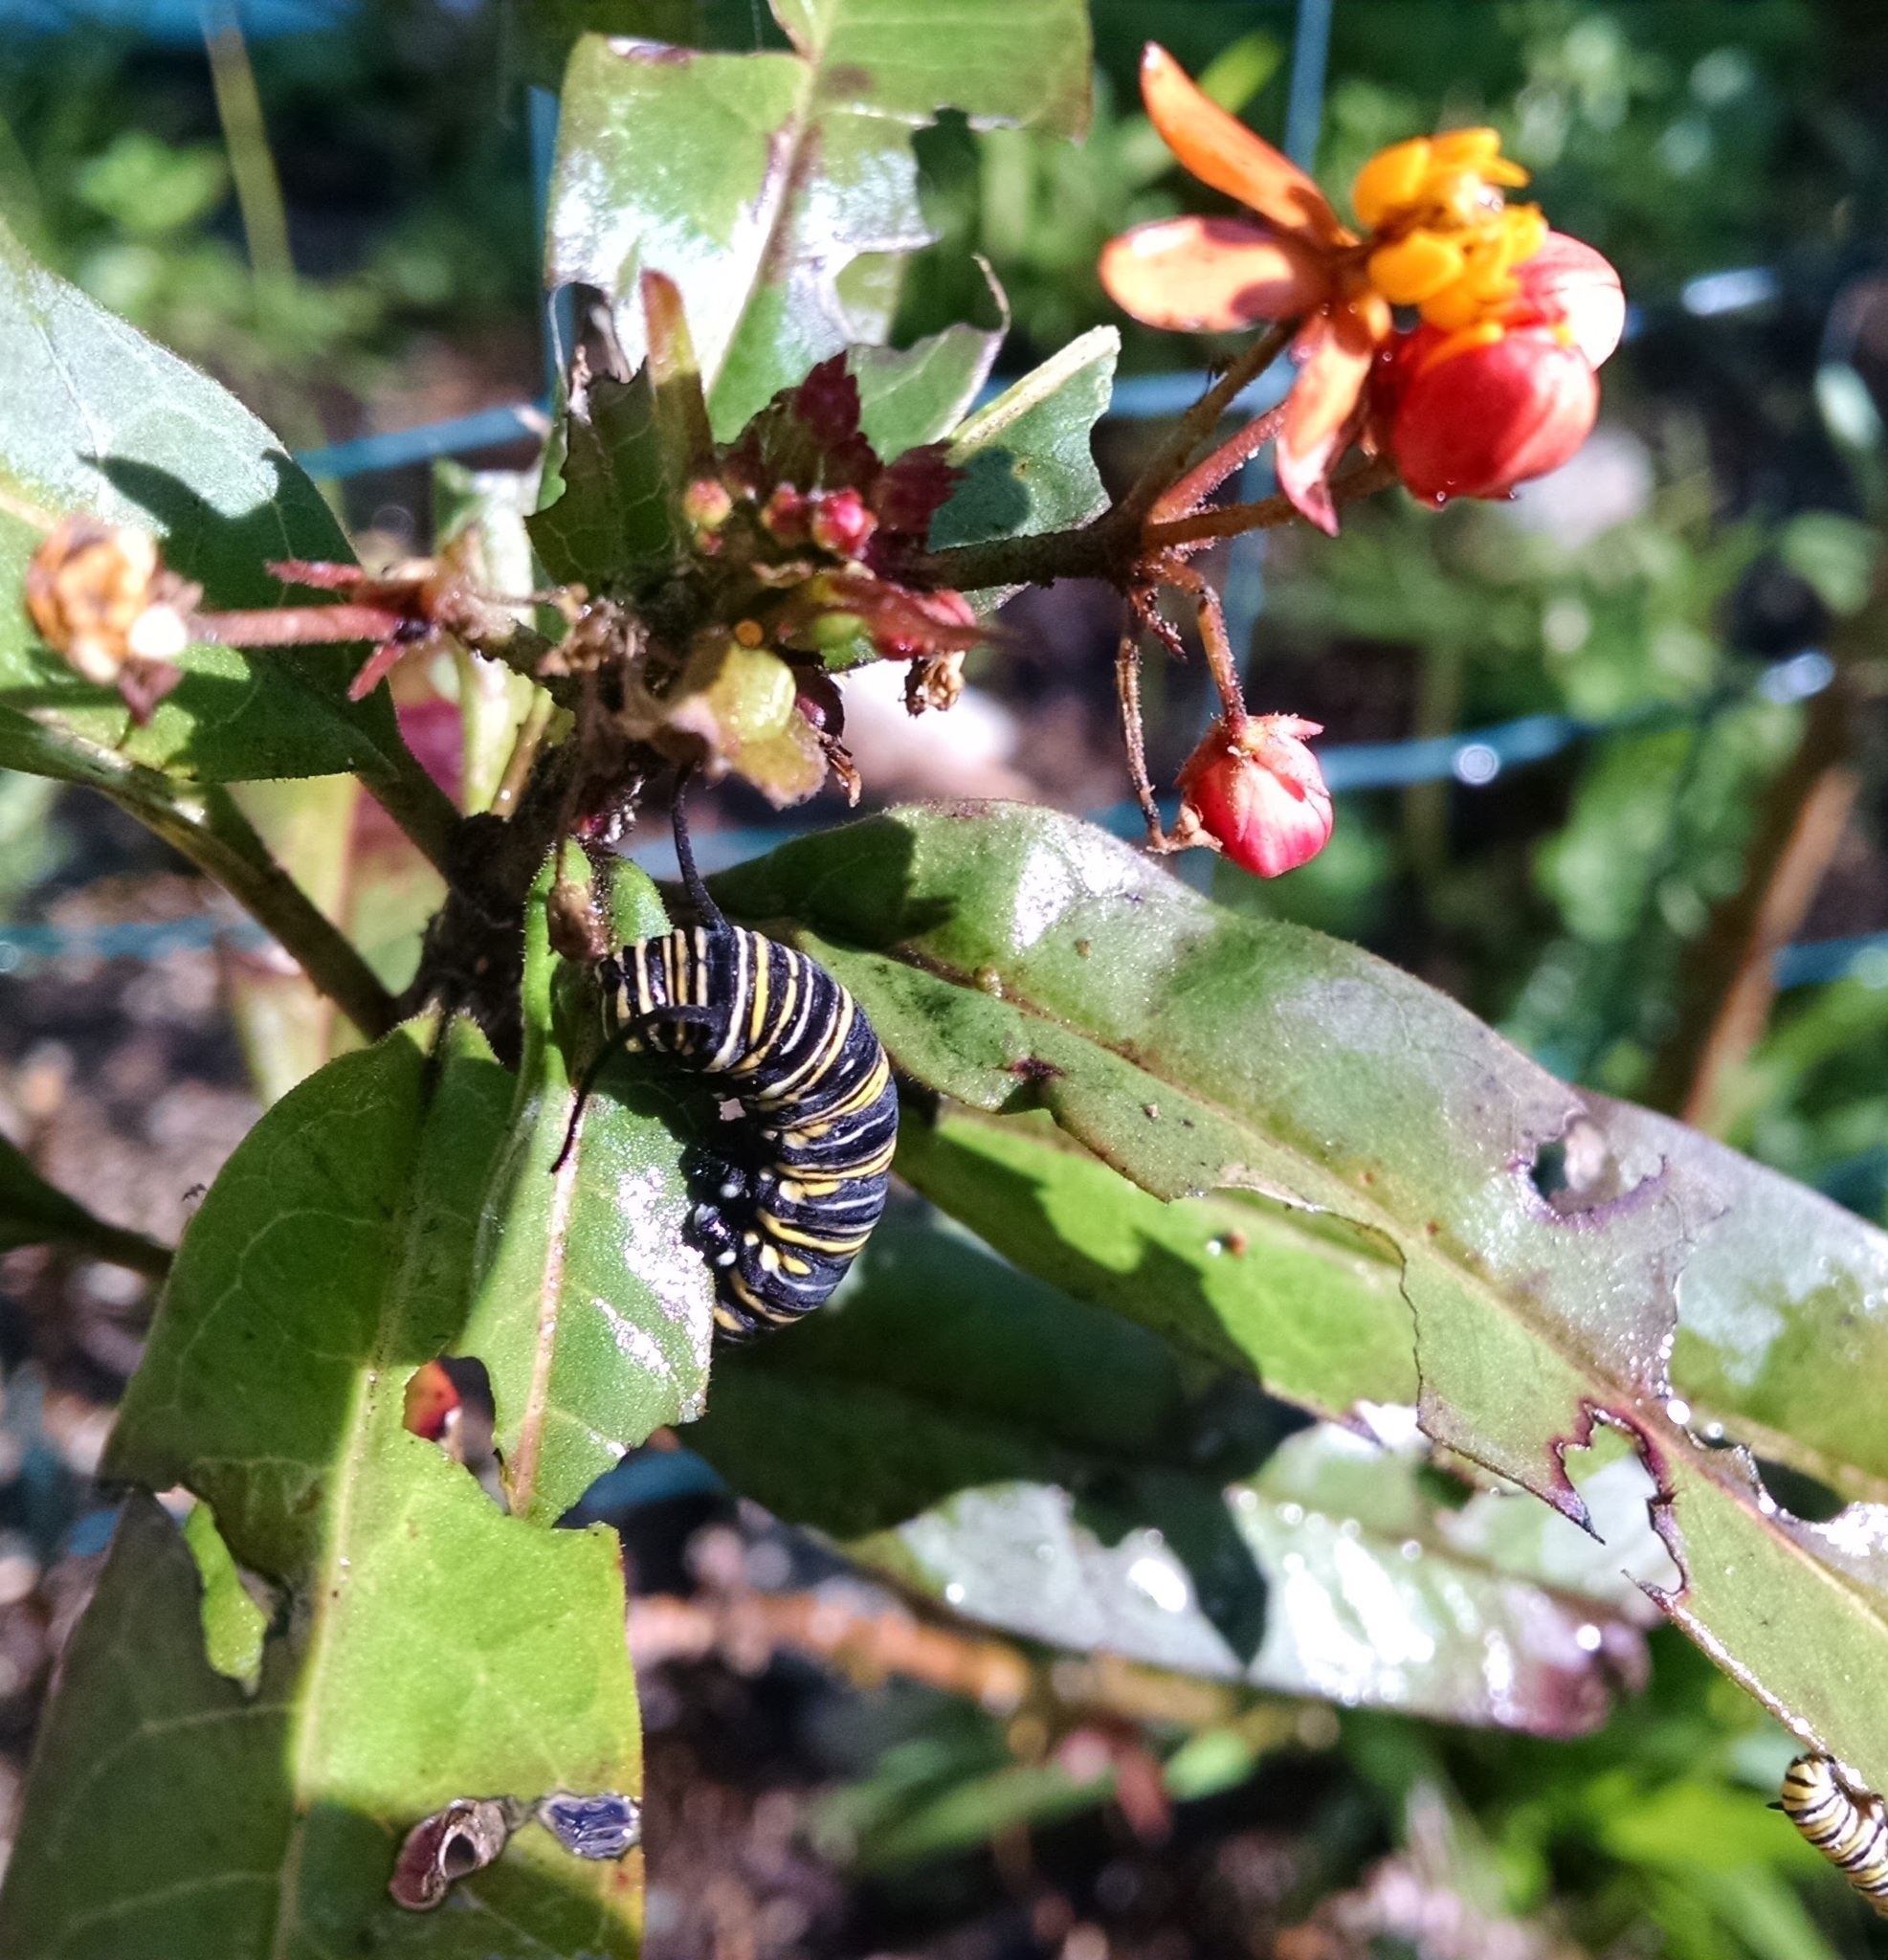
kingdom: Animalia
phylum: Arthropoda
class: Insecta
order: Lepidoptera
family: Nymphalidae
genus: Danaus
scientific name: Danaus plexippus
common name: Monarch
